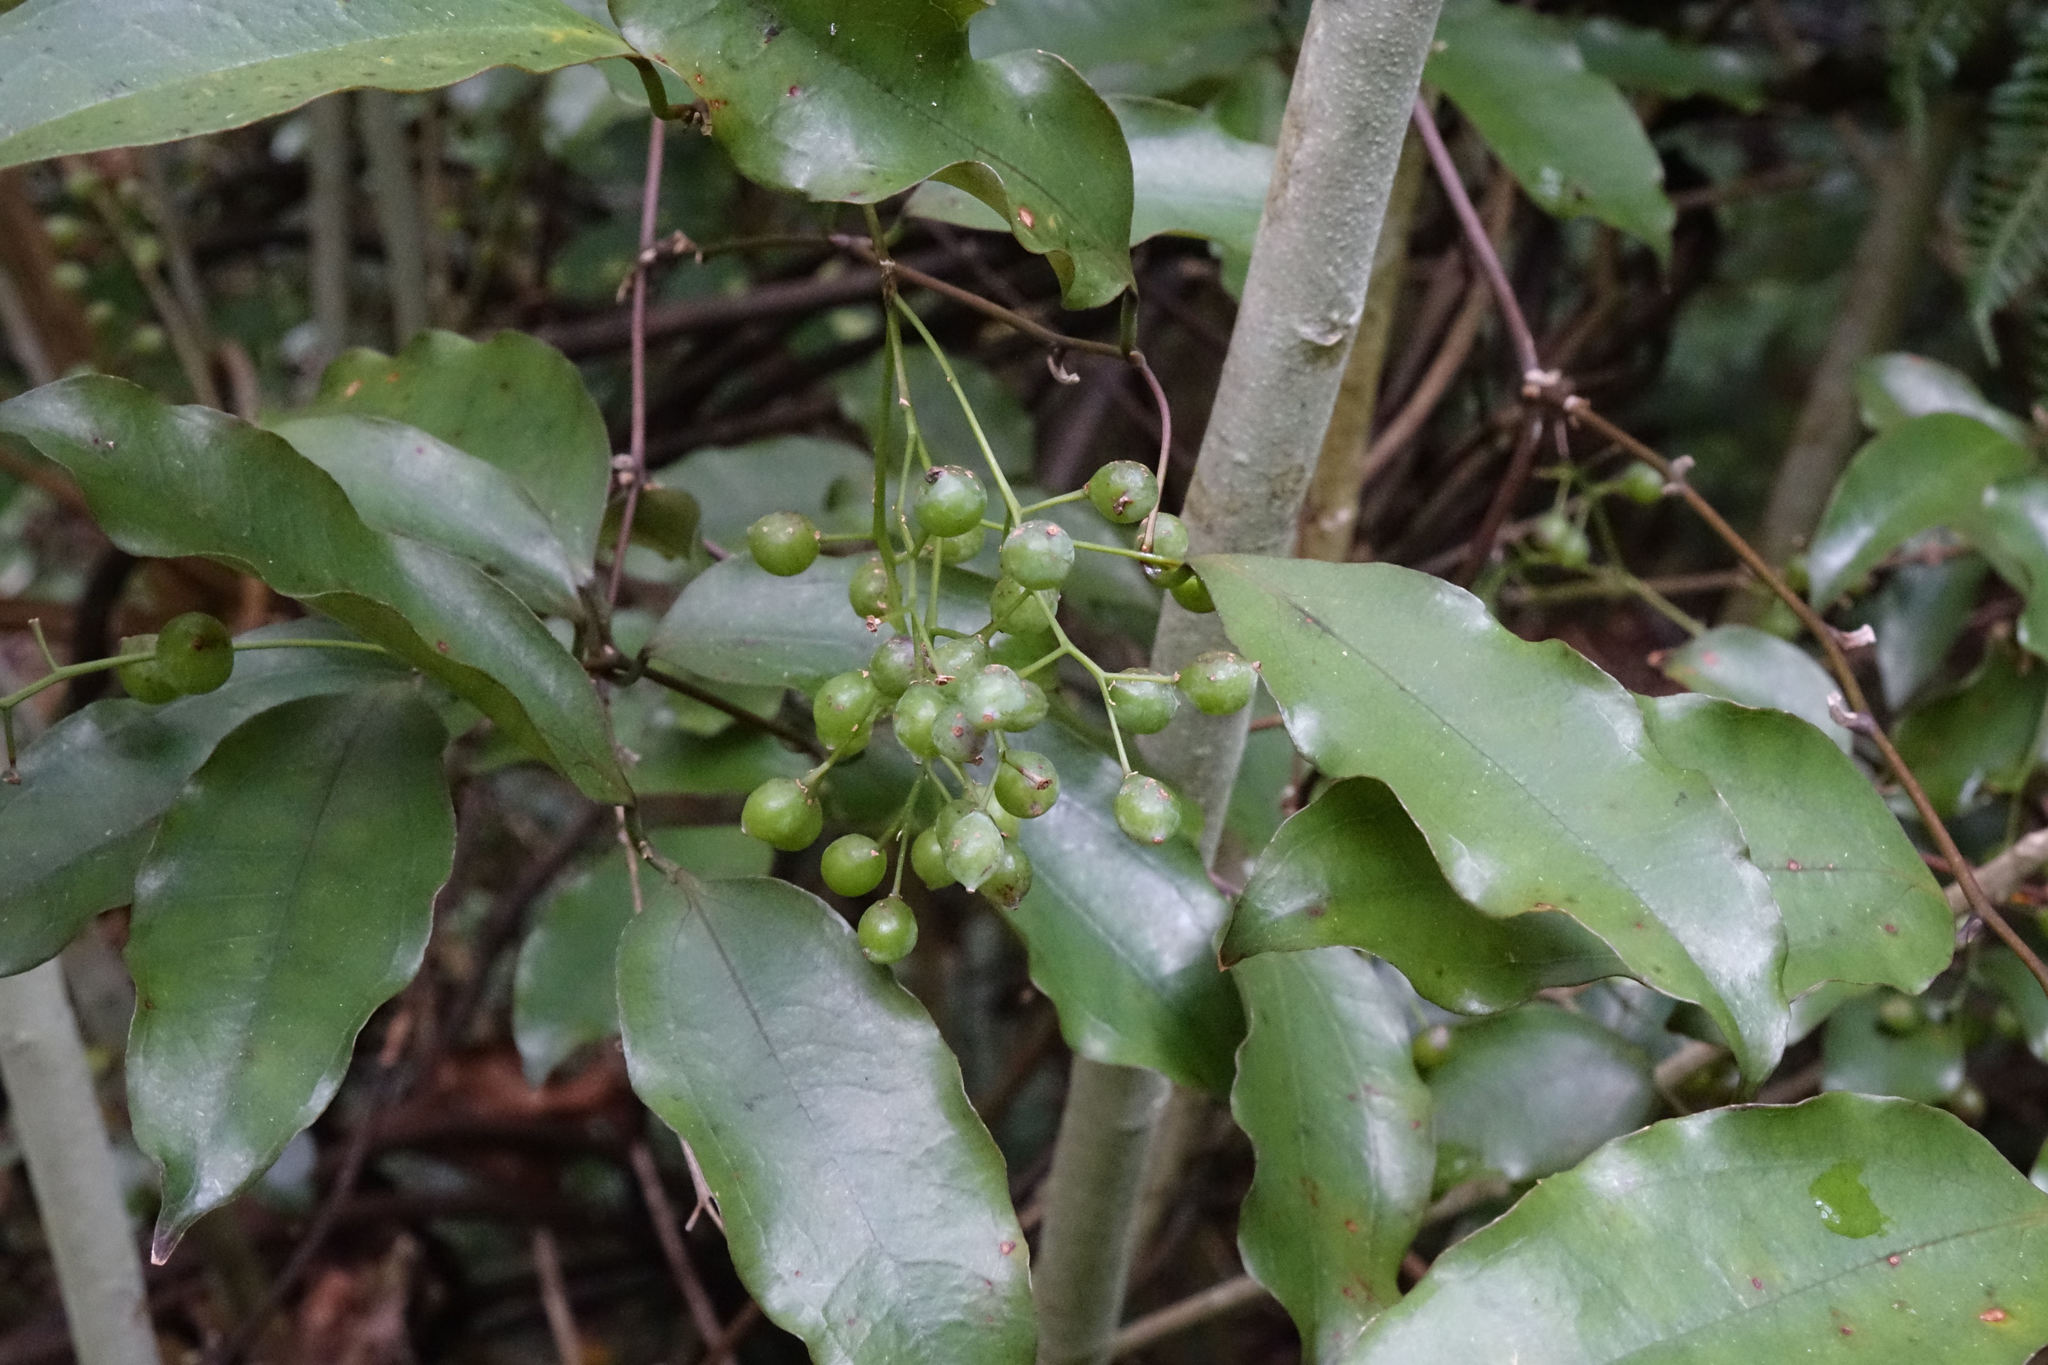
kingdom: Plantae
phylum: Tracheophyta
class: Liliopsida
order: Liliales
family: Ripogonaceae
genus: Ripogonum
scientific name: Ripogonum scandens
